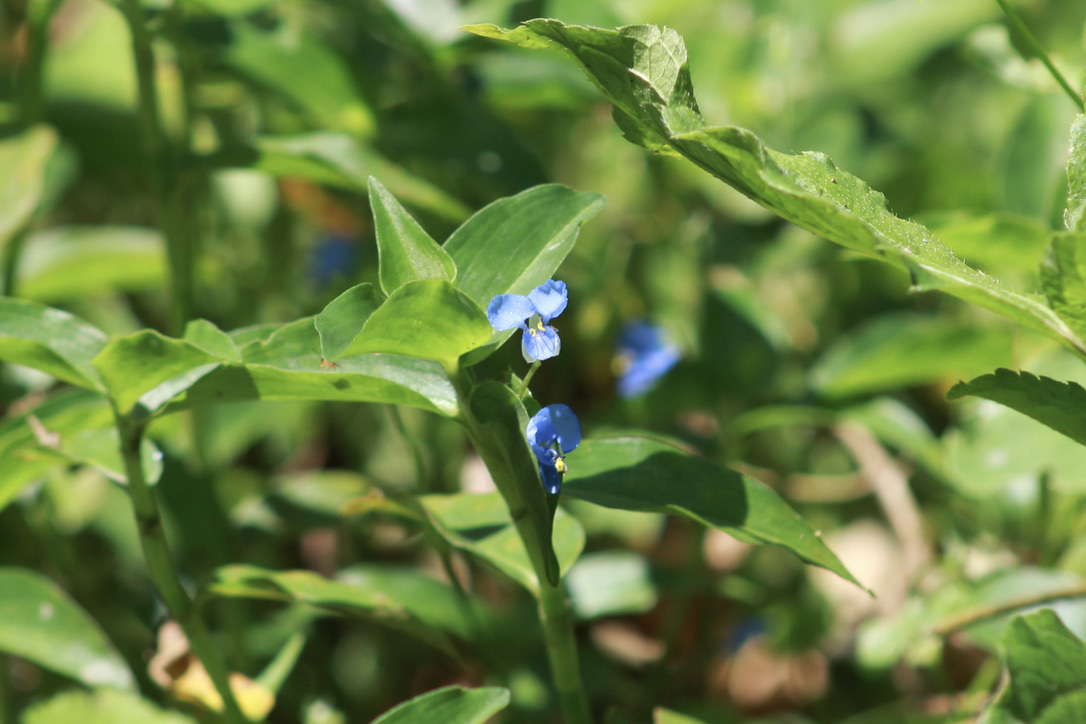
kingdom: Plantae
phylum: Tracheophyta
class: Liliopsida
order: Commelinales
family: Commelinaceae
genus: Commelina
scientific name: Commelina diffusa
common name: Climbing dayflower
